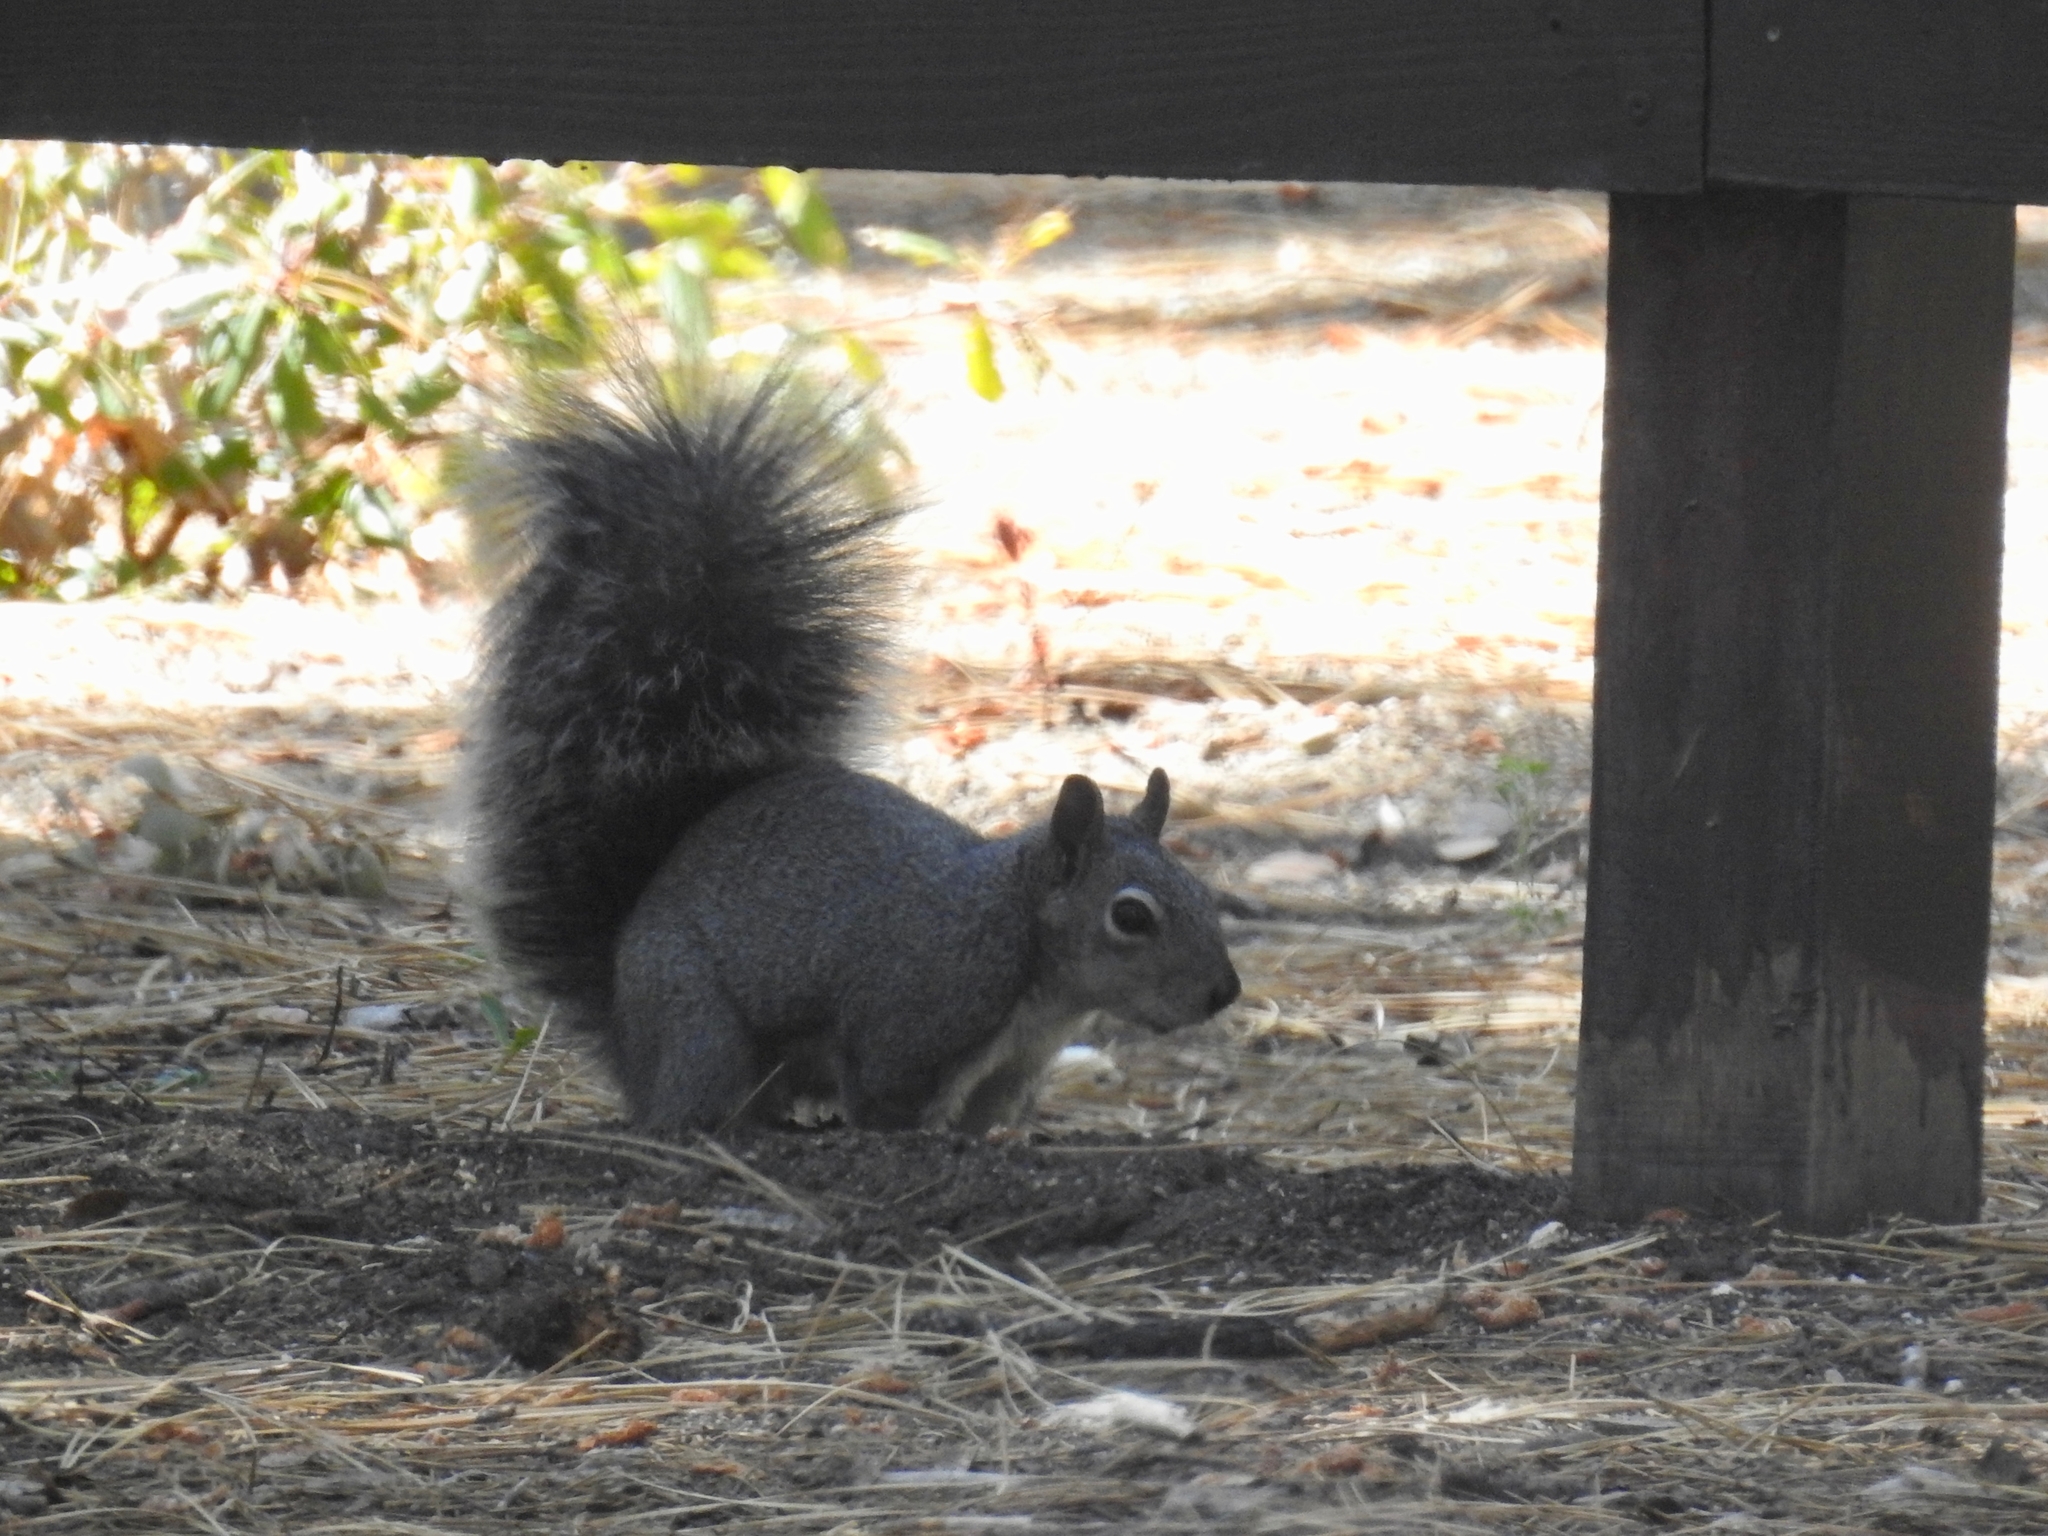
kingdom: Animalia
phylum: Chordata
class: Mammalia
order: Rodentia
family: Sciuridae
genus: Sciurus
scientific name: Sciurus griseus
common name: Western gray squirrel
